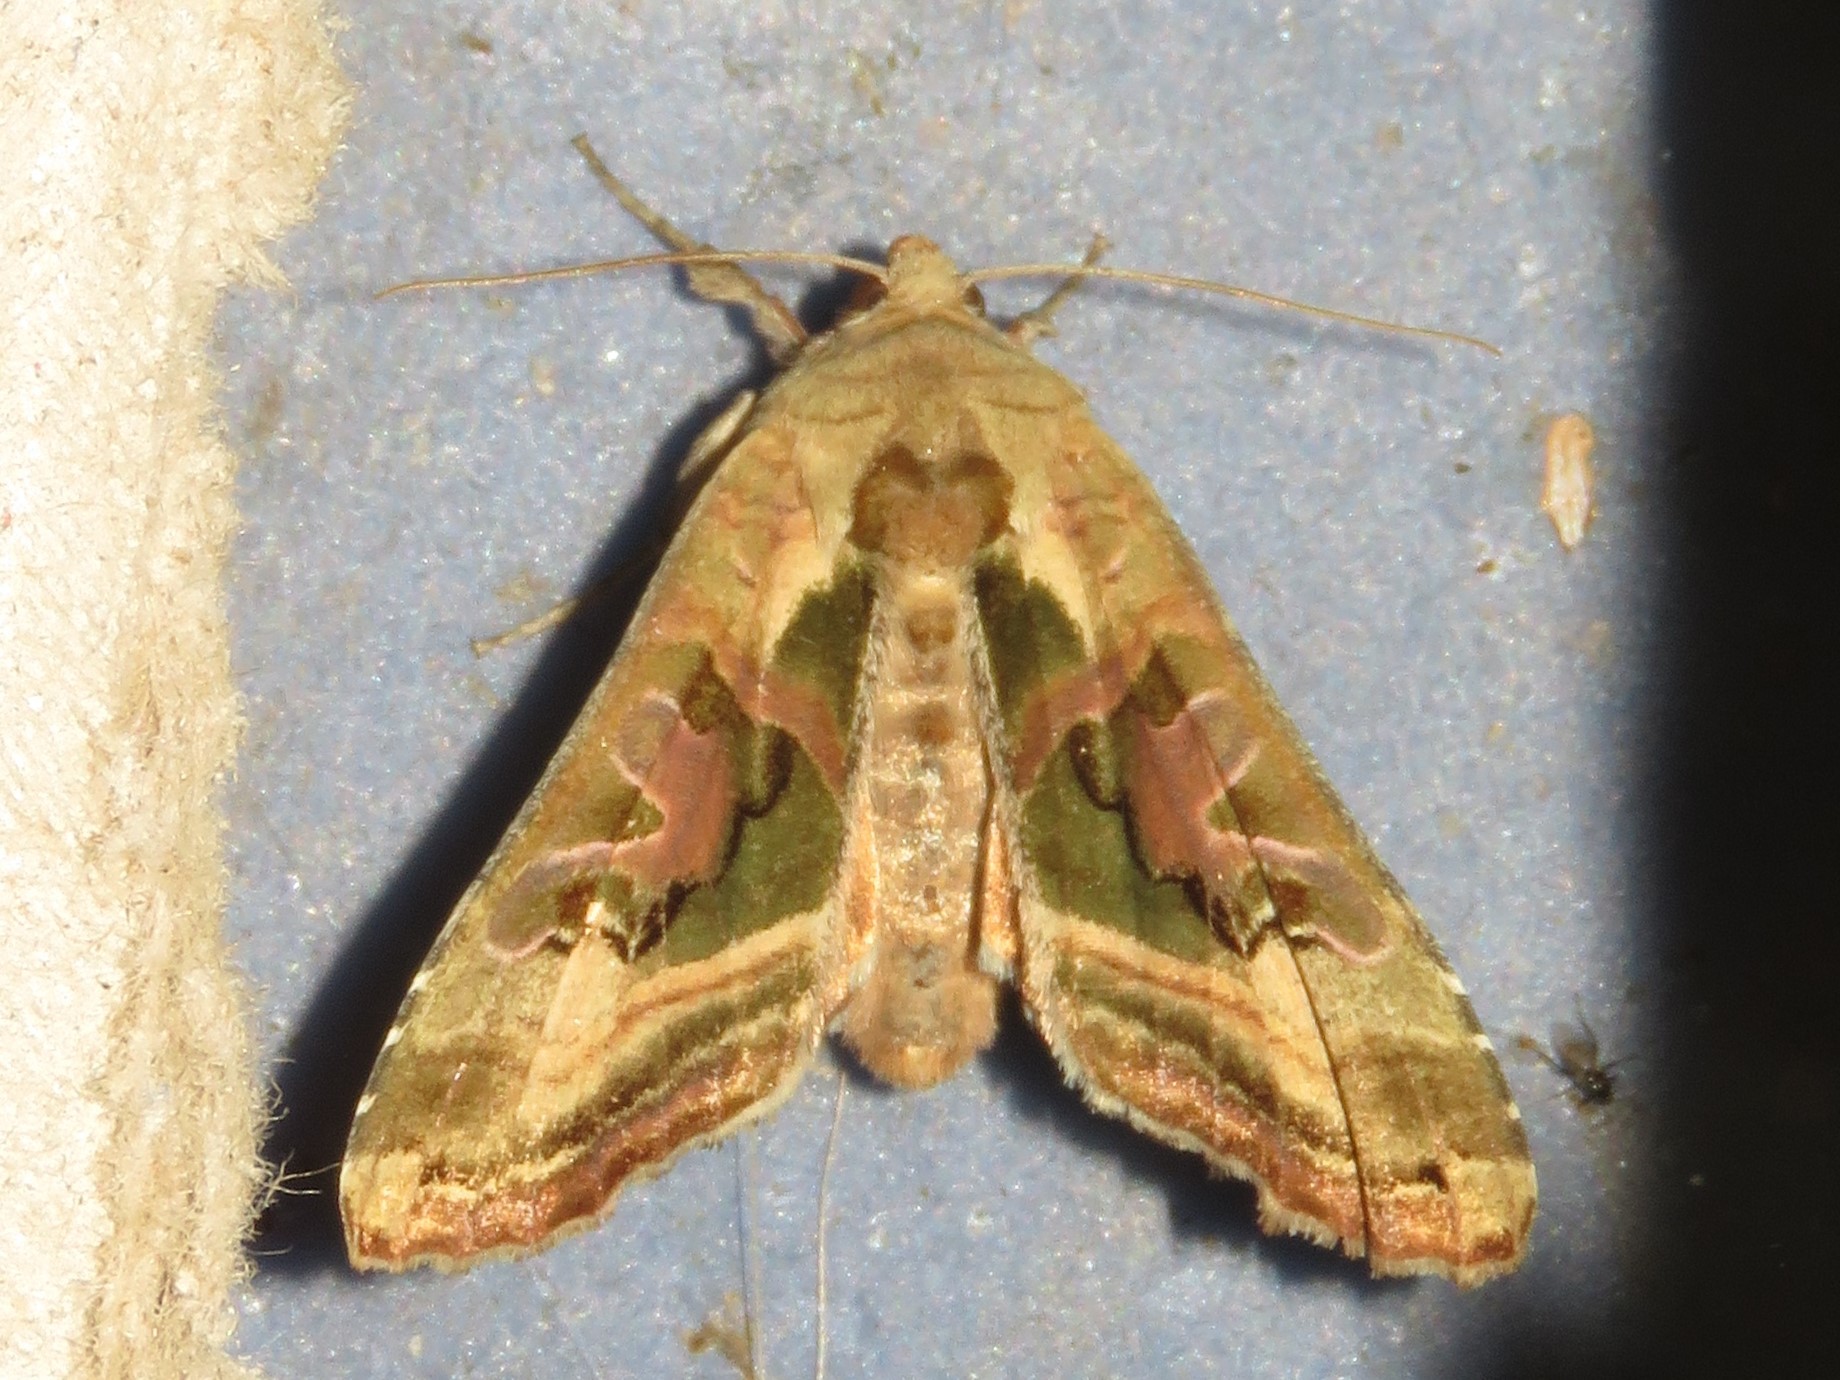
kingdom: Animalia
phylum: Arthropoda
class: Insecta
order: Lepidoptera
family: Noctuidae
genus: Phlogophora
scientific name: Phlogophora iris
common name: Olive angle shades
